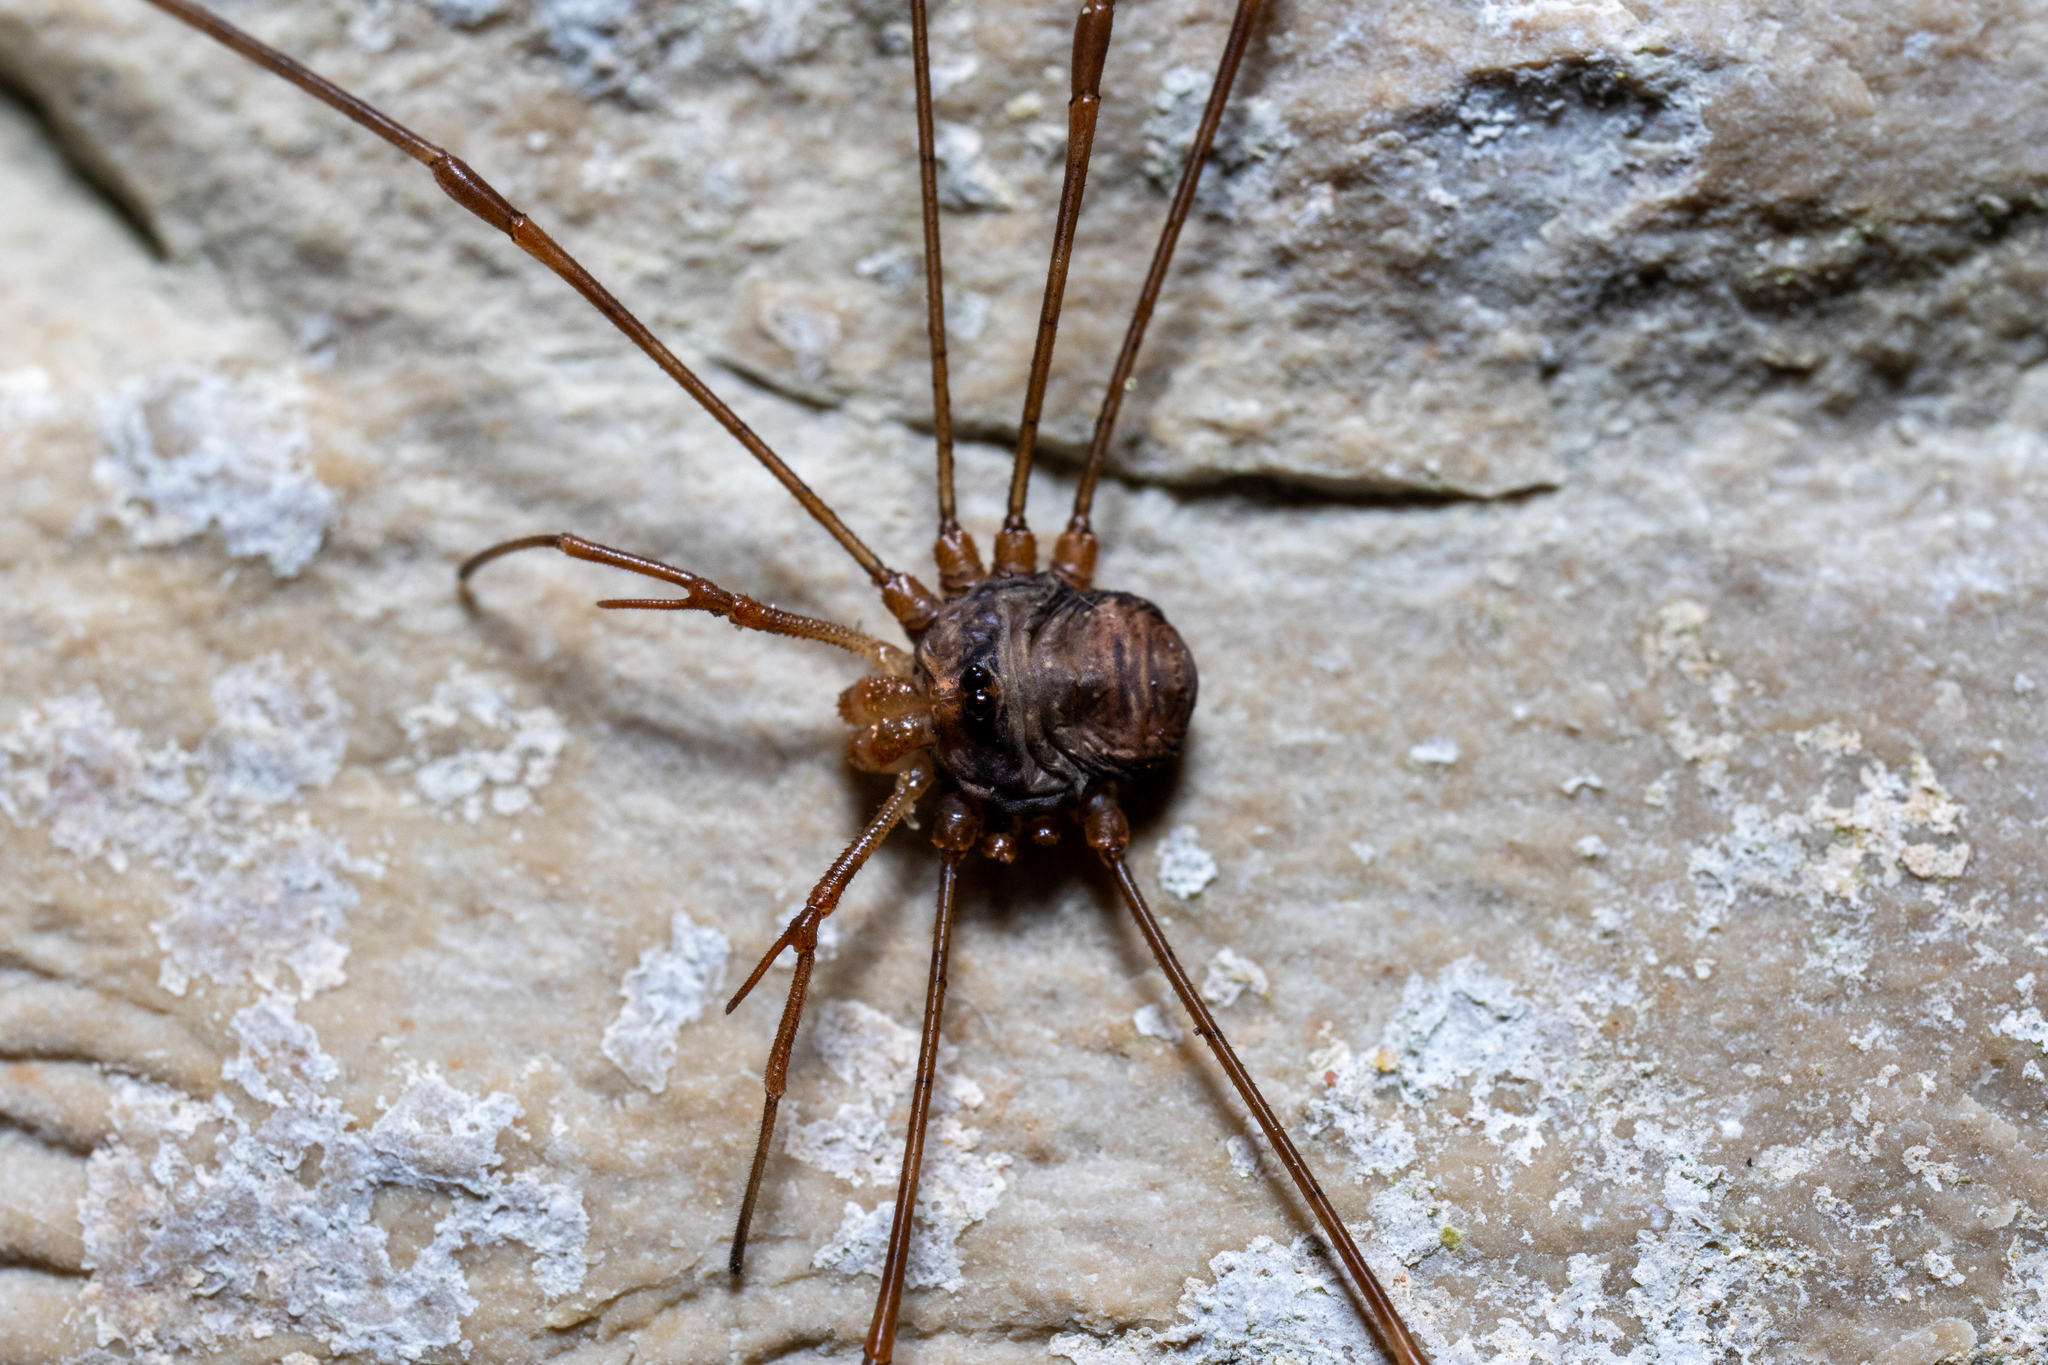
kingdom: Animalia
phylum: Arthropoda
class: Arachnida
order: Opiliones
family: Phalangiidae
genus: Dicranopalpus
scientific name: Dicranopalpus ramosus
